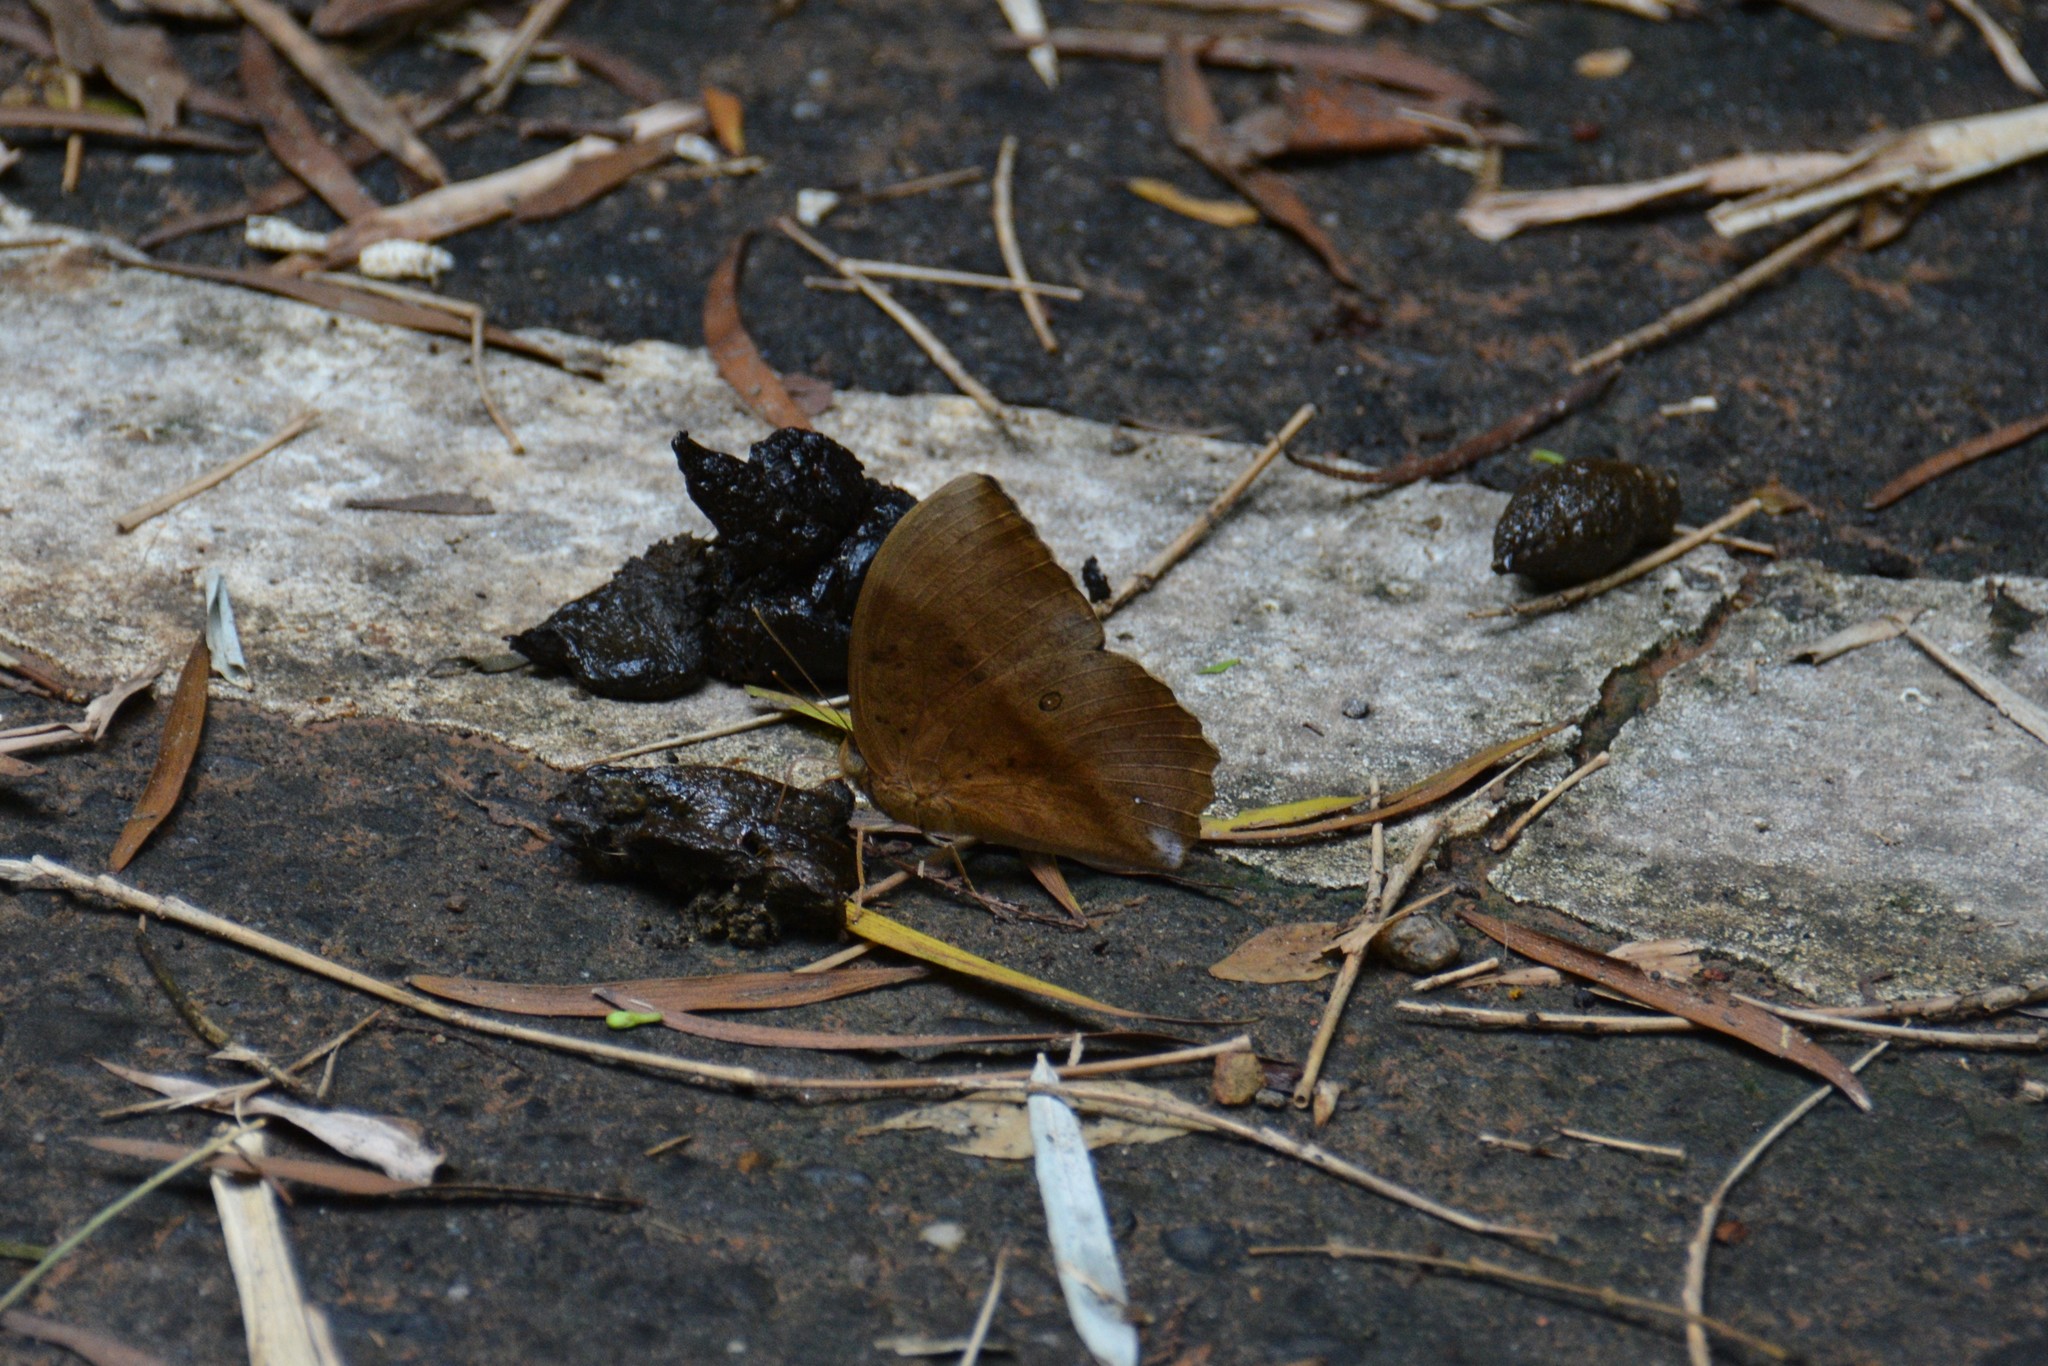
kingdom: Animalia
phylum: Arthropoda
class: Insecta
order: Lepidoptera
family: Nymphalidae
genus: Discophora
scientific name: Discophora sondaica
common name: Common duffer
